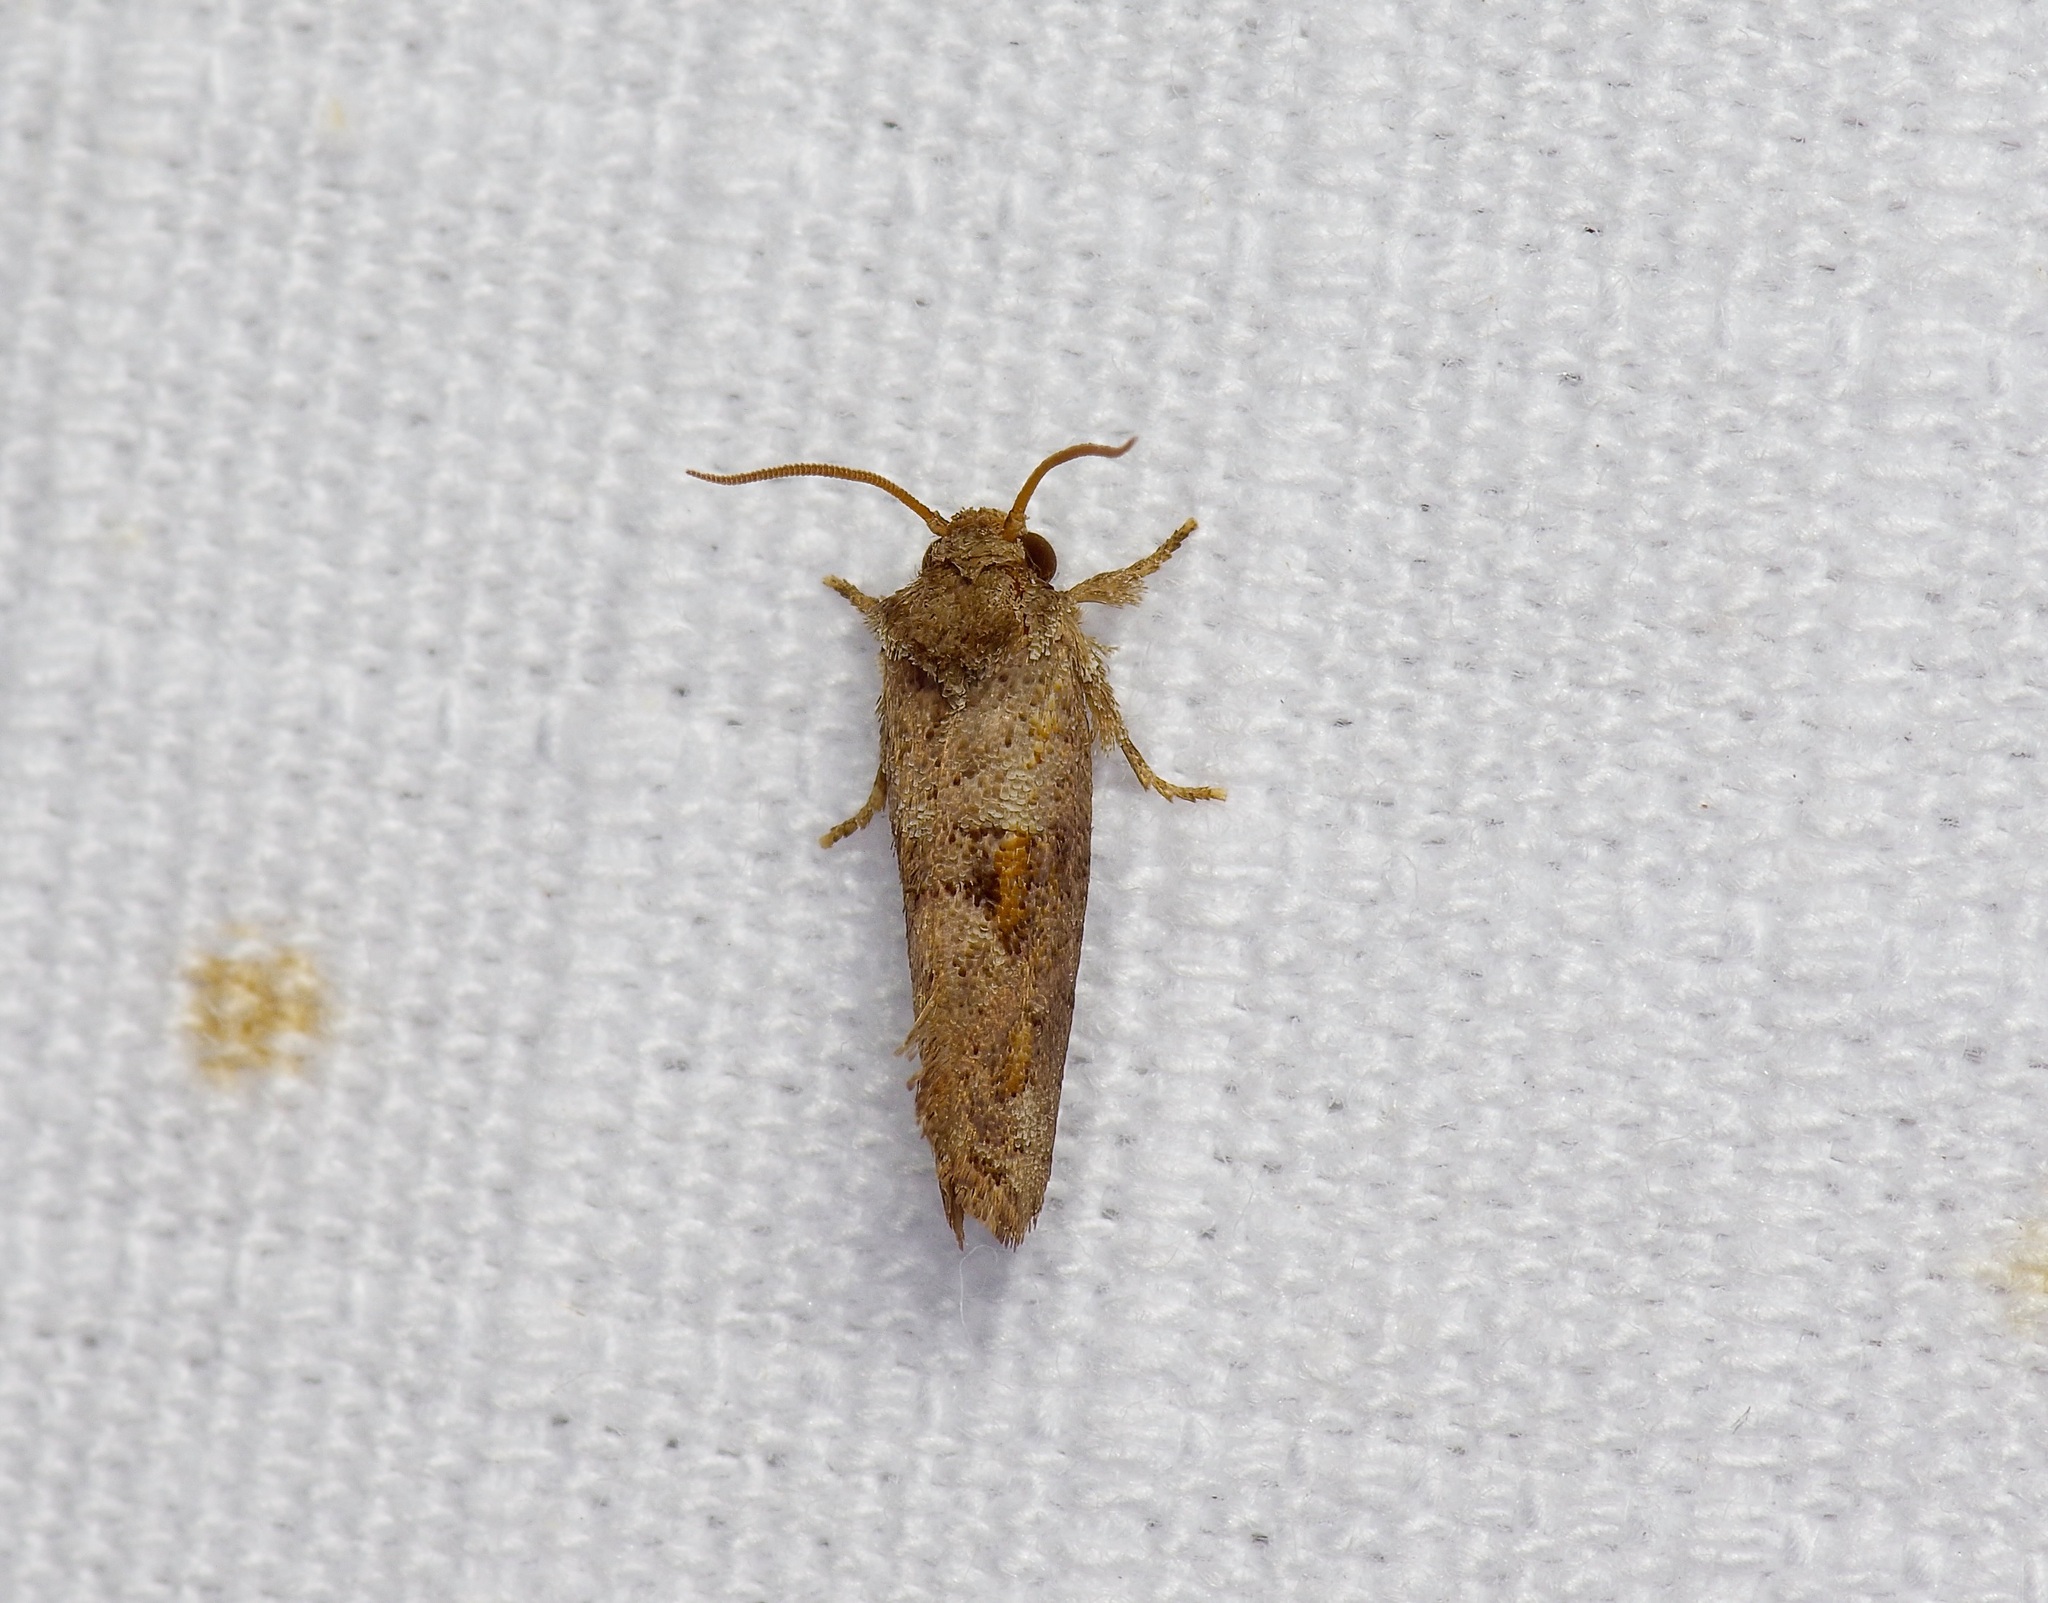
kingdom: Animalia
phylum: Arthropoda
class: Insecta
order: Lepidoptera
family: Tineidae
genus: Acrolophus
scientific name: Acrolophus piger
